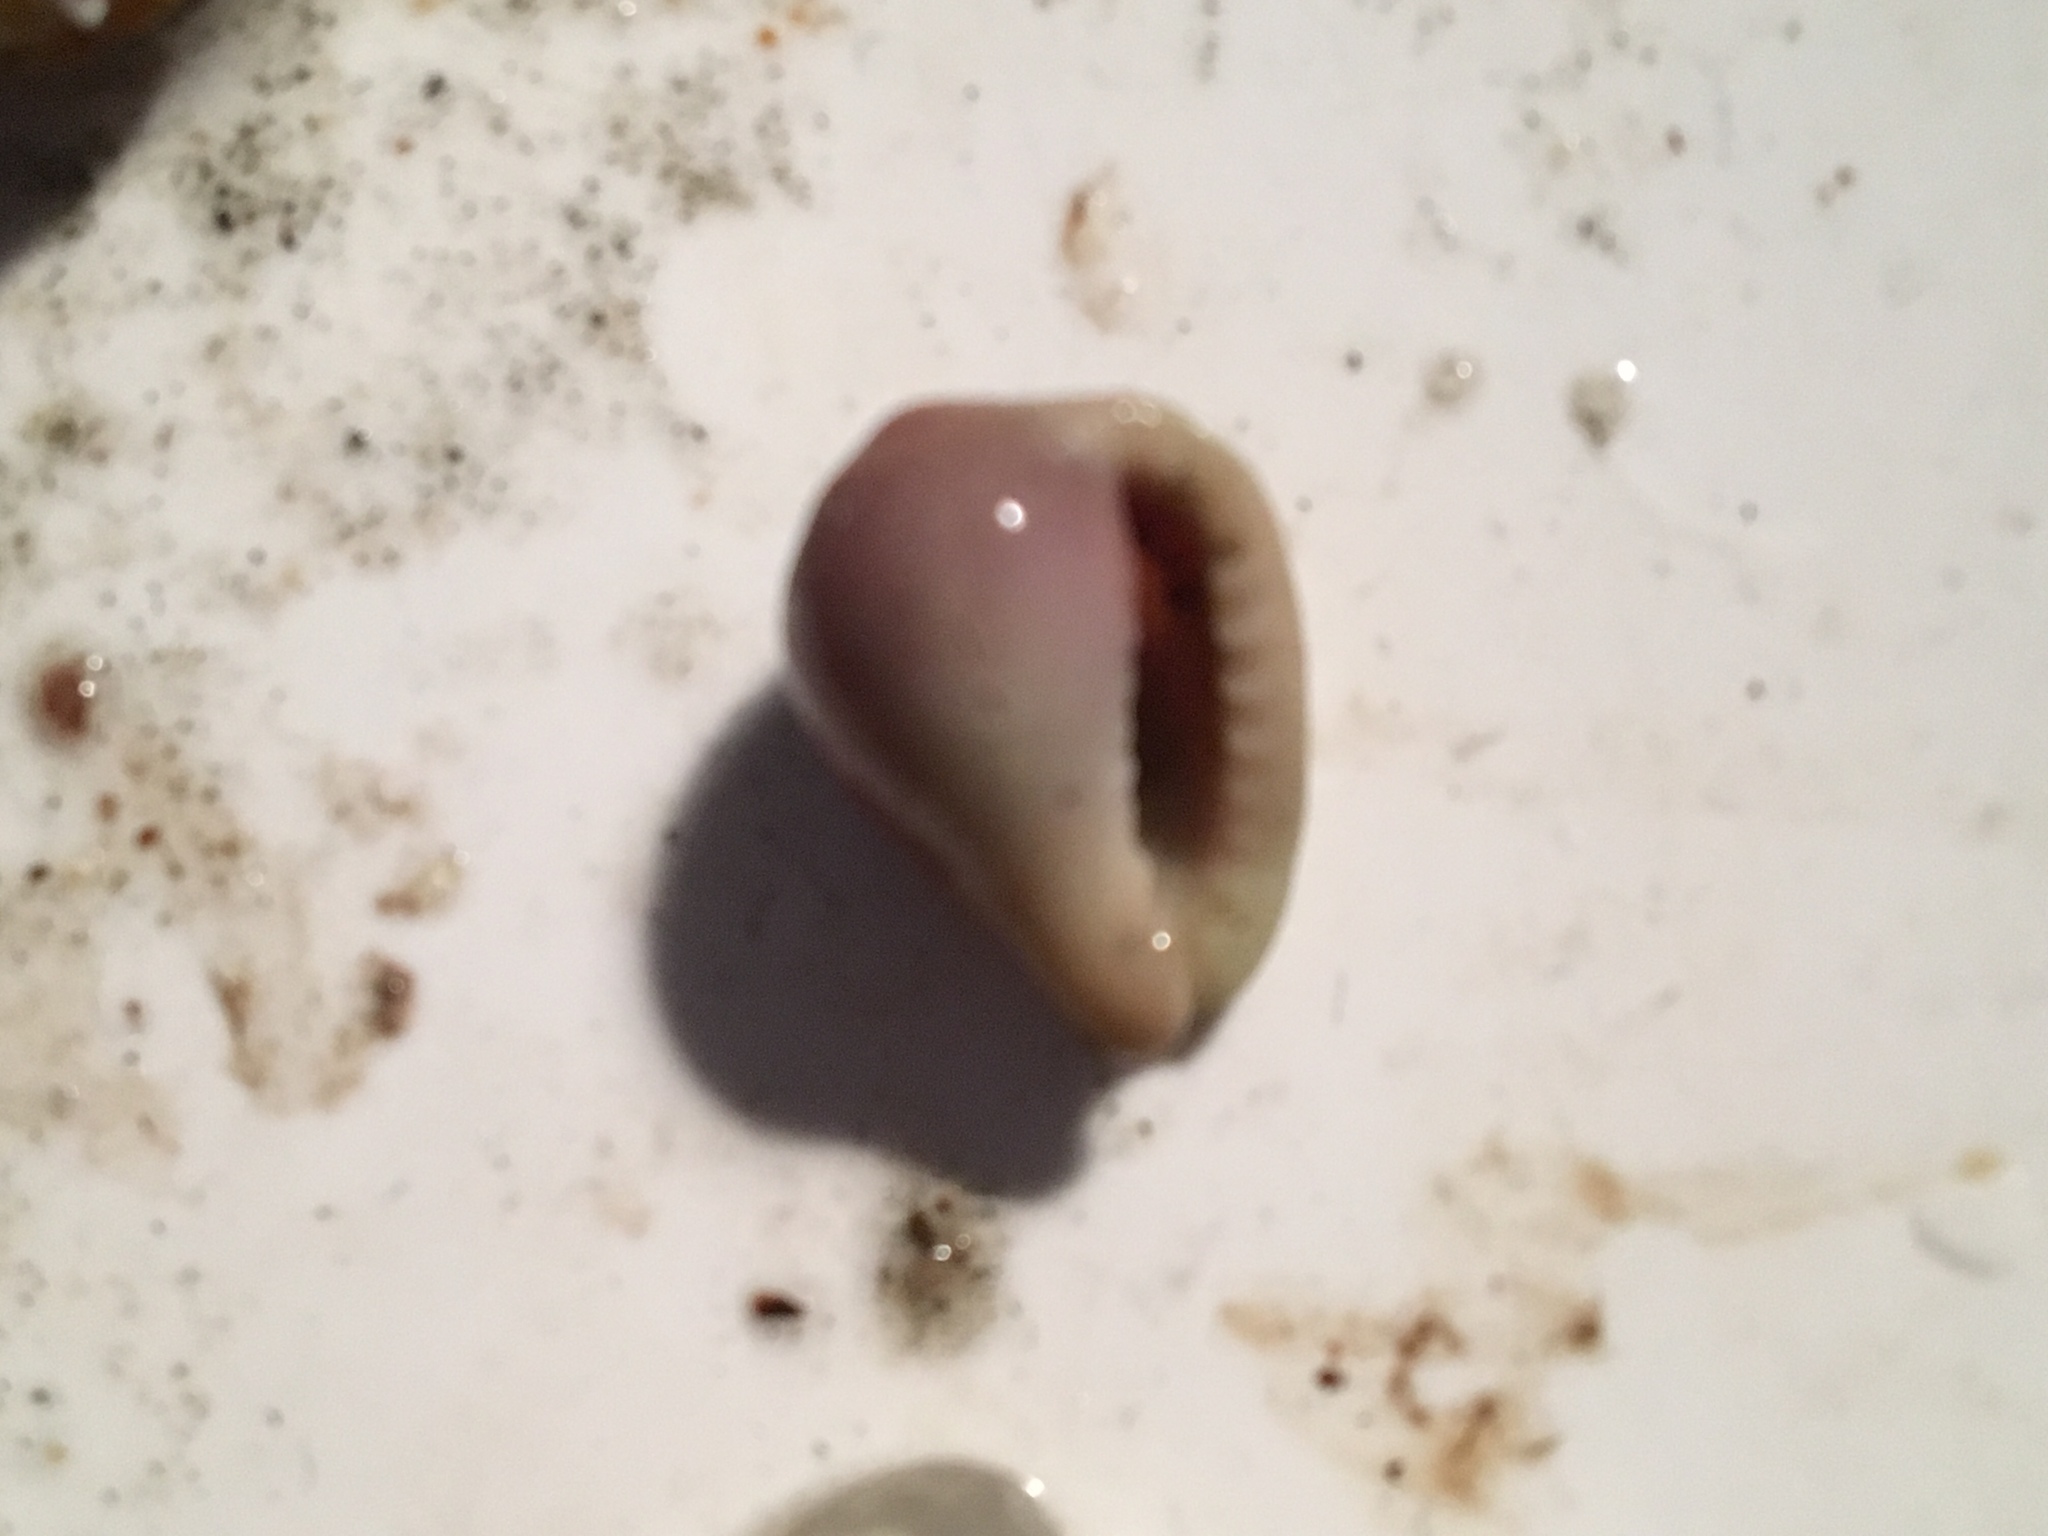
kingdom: Animalia
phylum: Mollusca
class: Gastropoda
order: Littorinimorpha
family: Eratoidae
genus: Hespererato
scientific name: Hespererato vitellina
